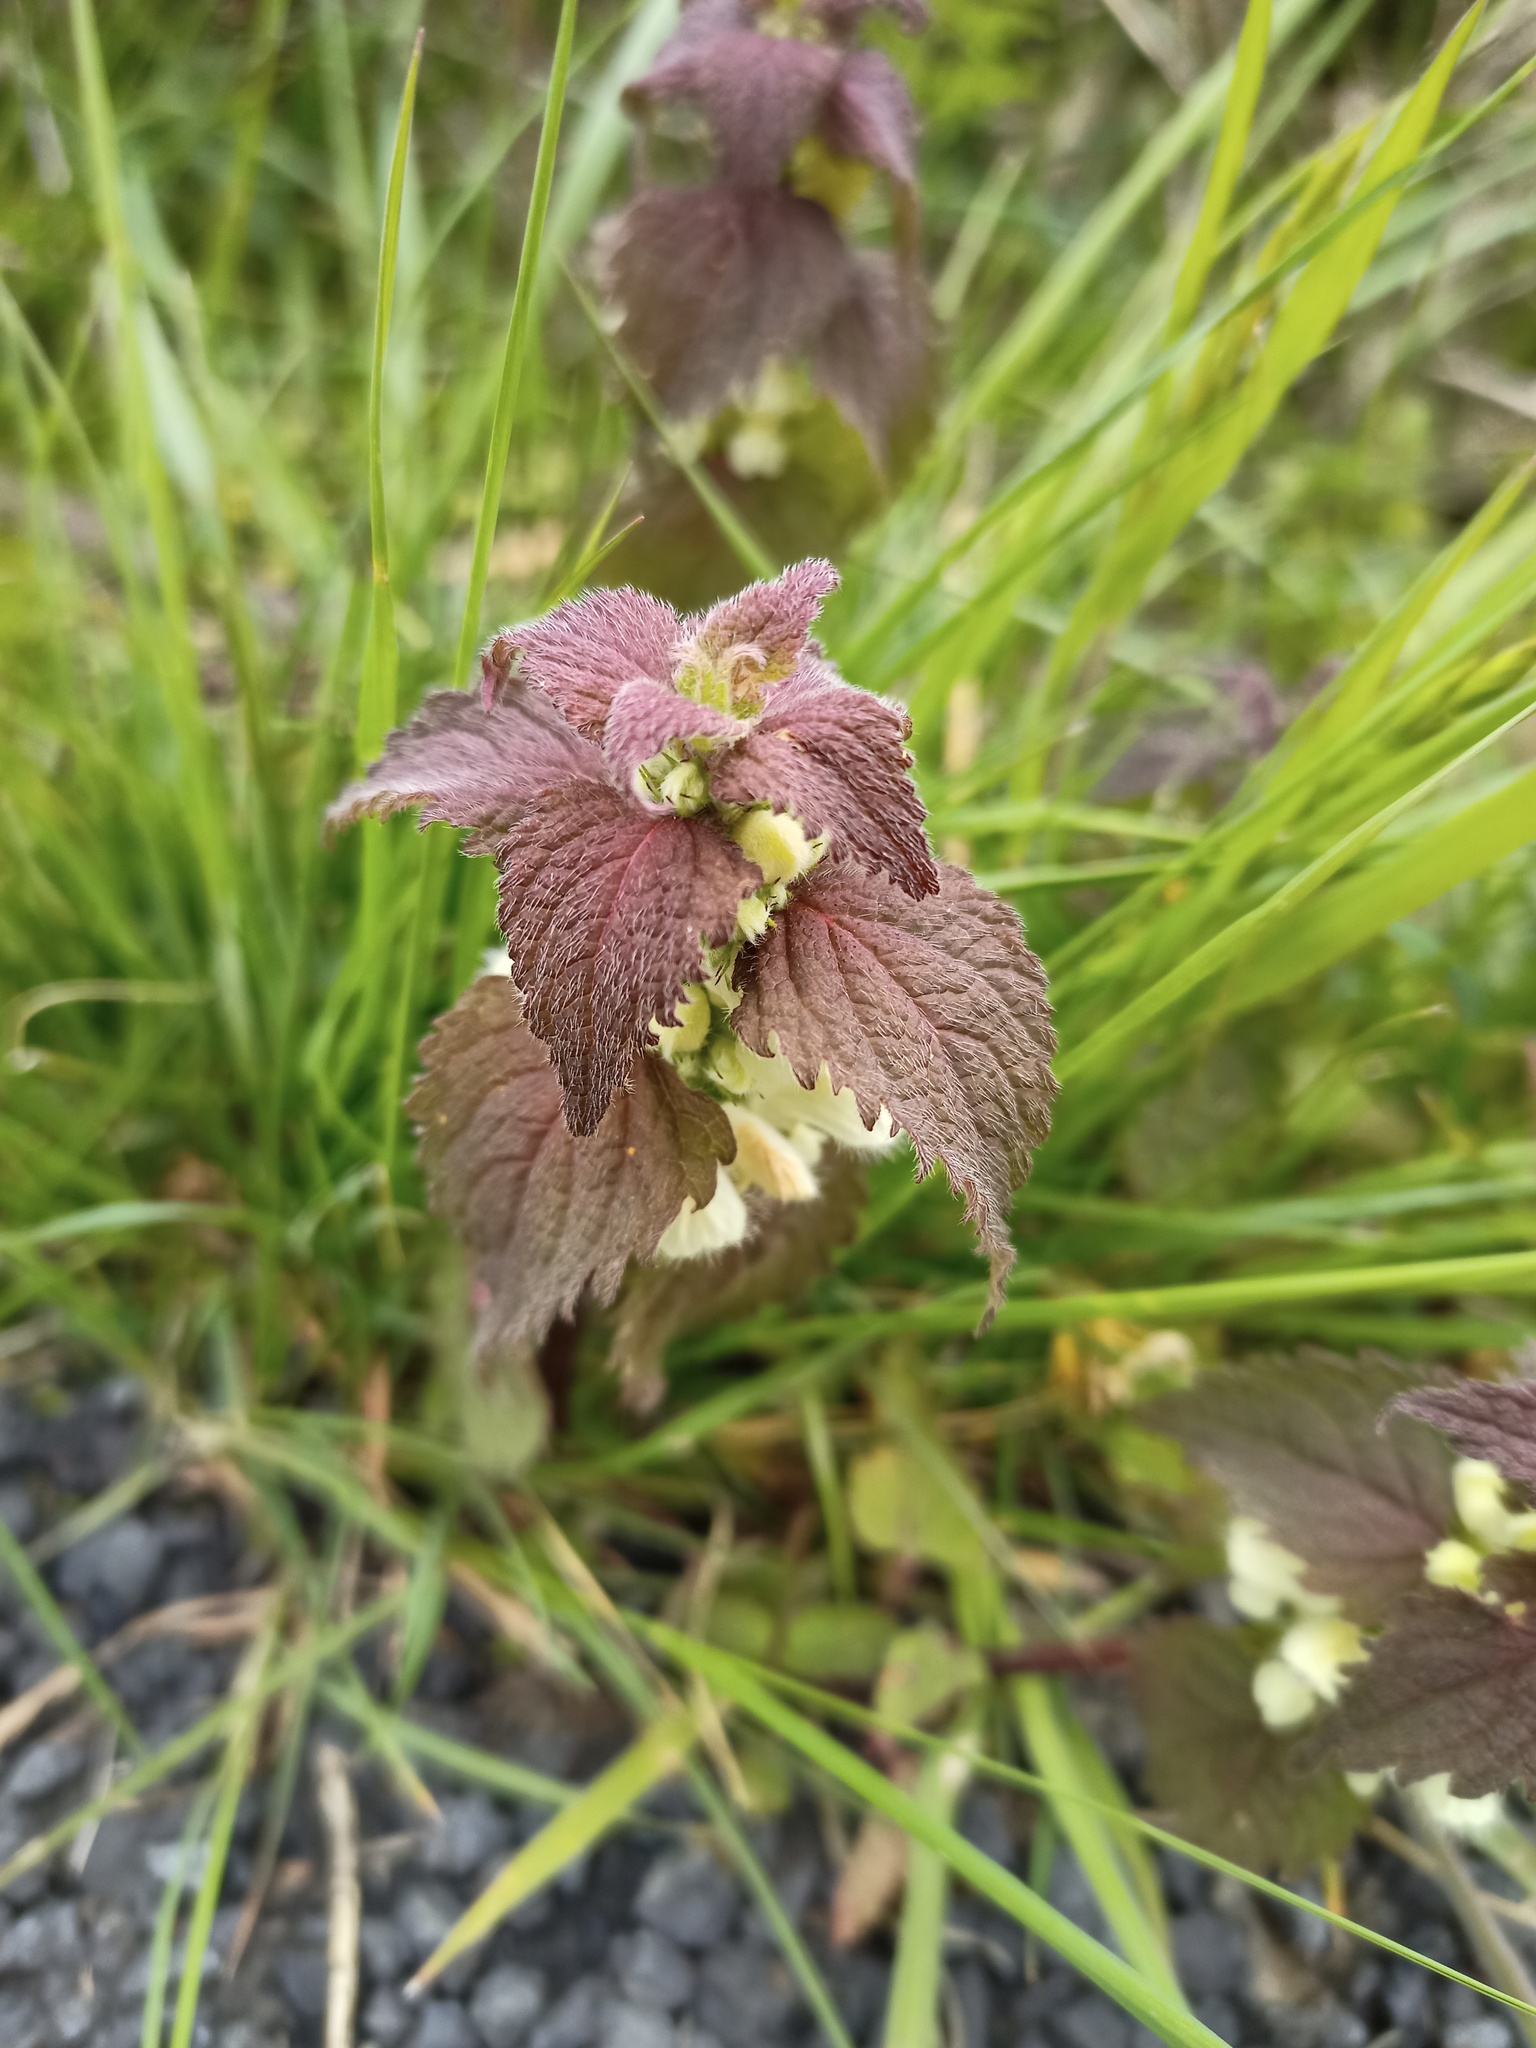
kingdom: Plantae
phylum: Tracheophyta
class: Magnoliopsida
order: Lamiales
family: Lamiaceae
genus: Lamium
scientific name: Lamium album
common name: White dead-nettle
